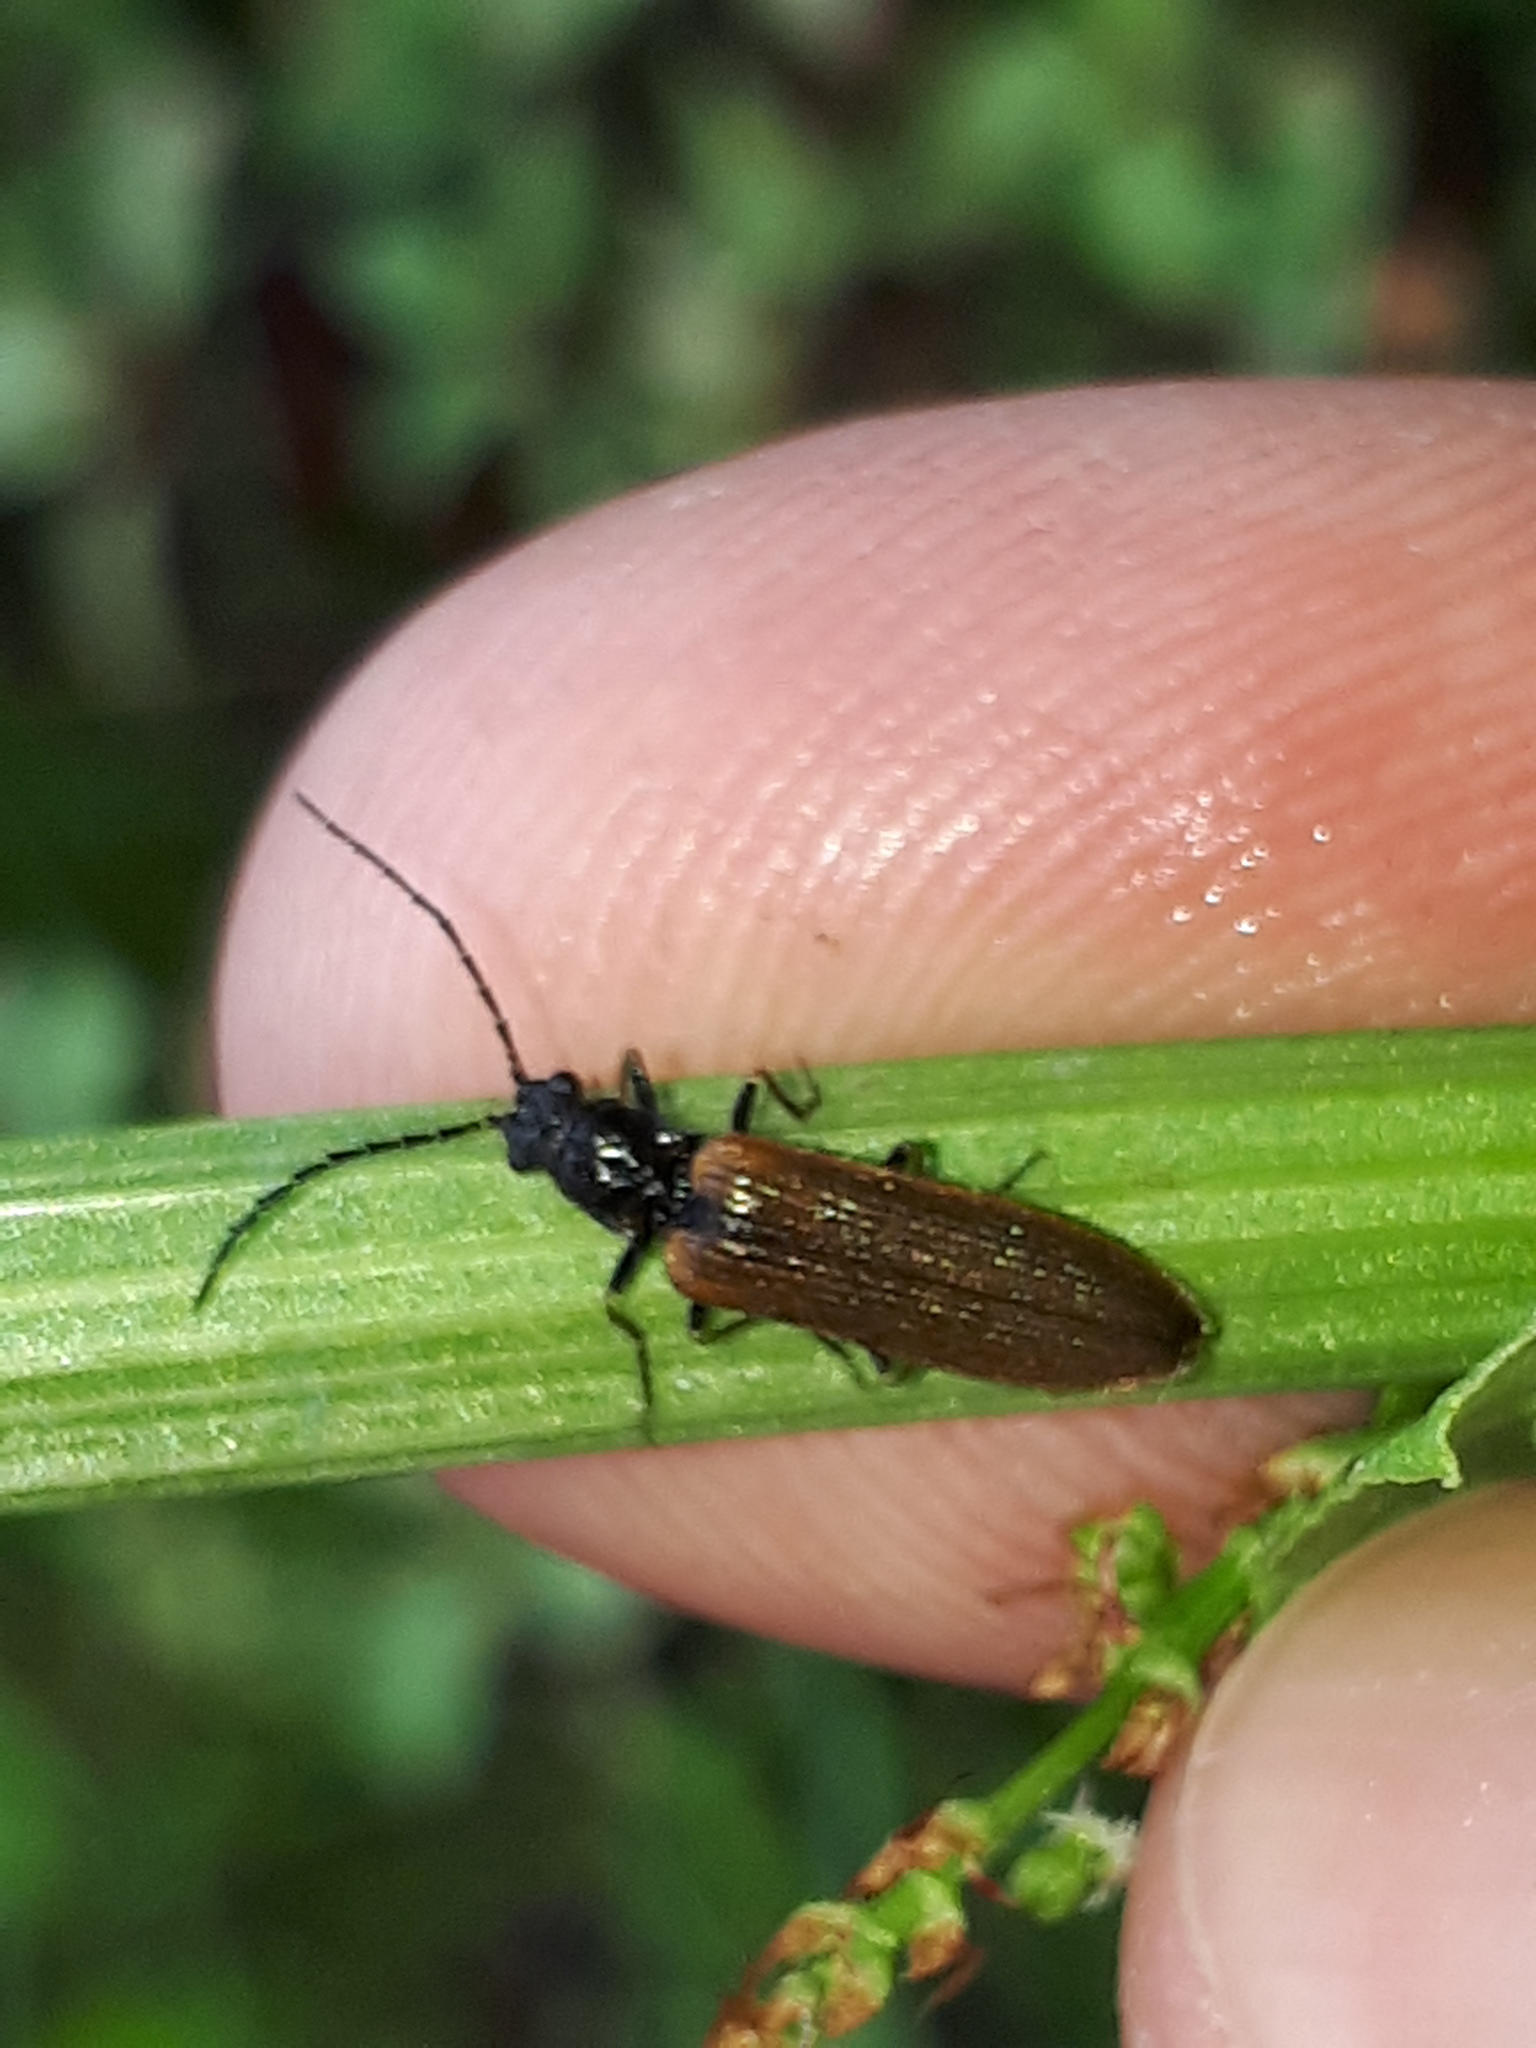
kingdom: Animalia
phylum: Arthropoda
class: Insecta
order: Coleoptera
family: Elateridae
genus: Denticollis
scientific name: Denticollis linearis
